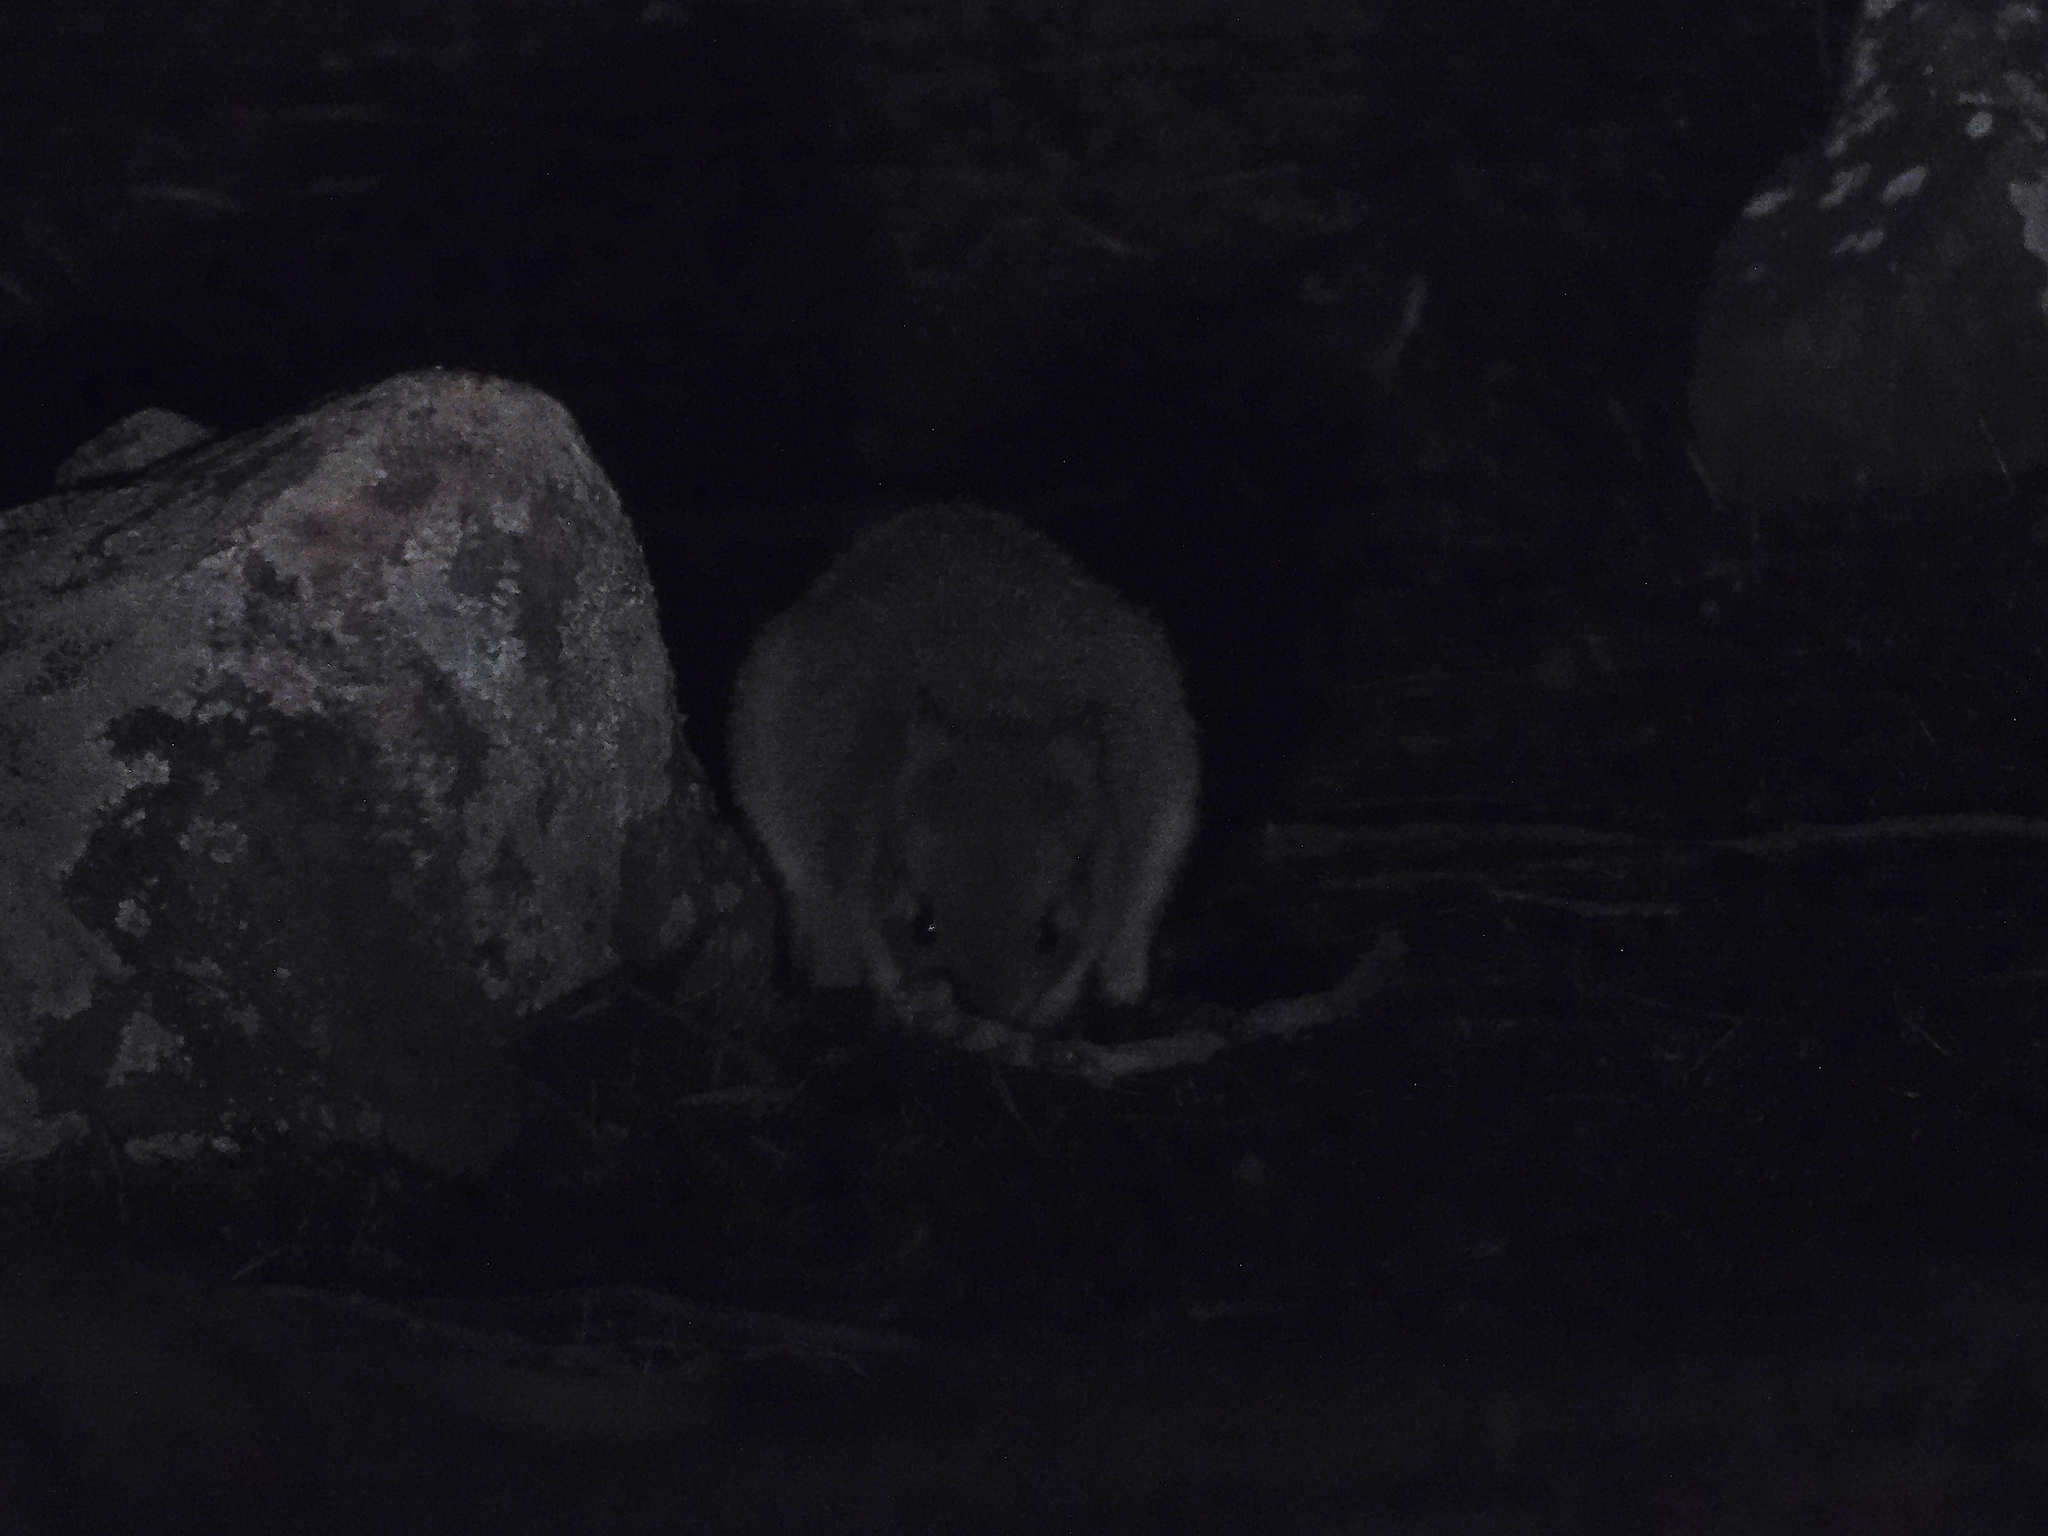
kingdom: Animalia
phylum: Chordata
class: Mammalia
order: Diprotodontia
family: Potoroidae
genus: Bettongia
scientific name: Bettongia gaimardi
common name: Eastern bettong
